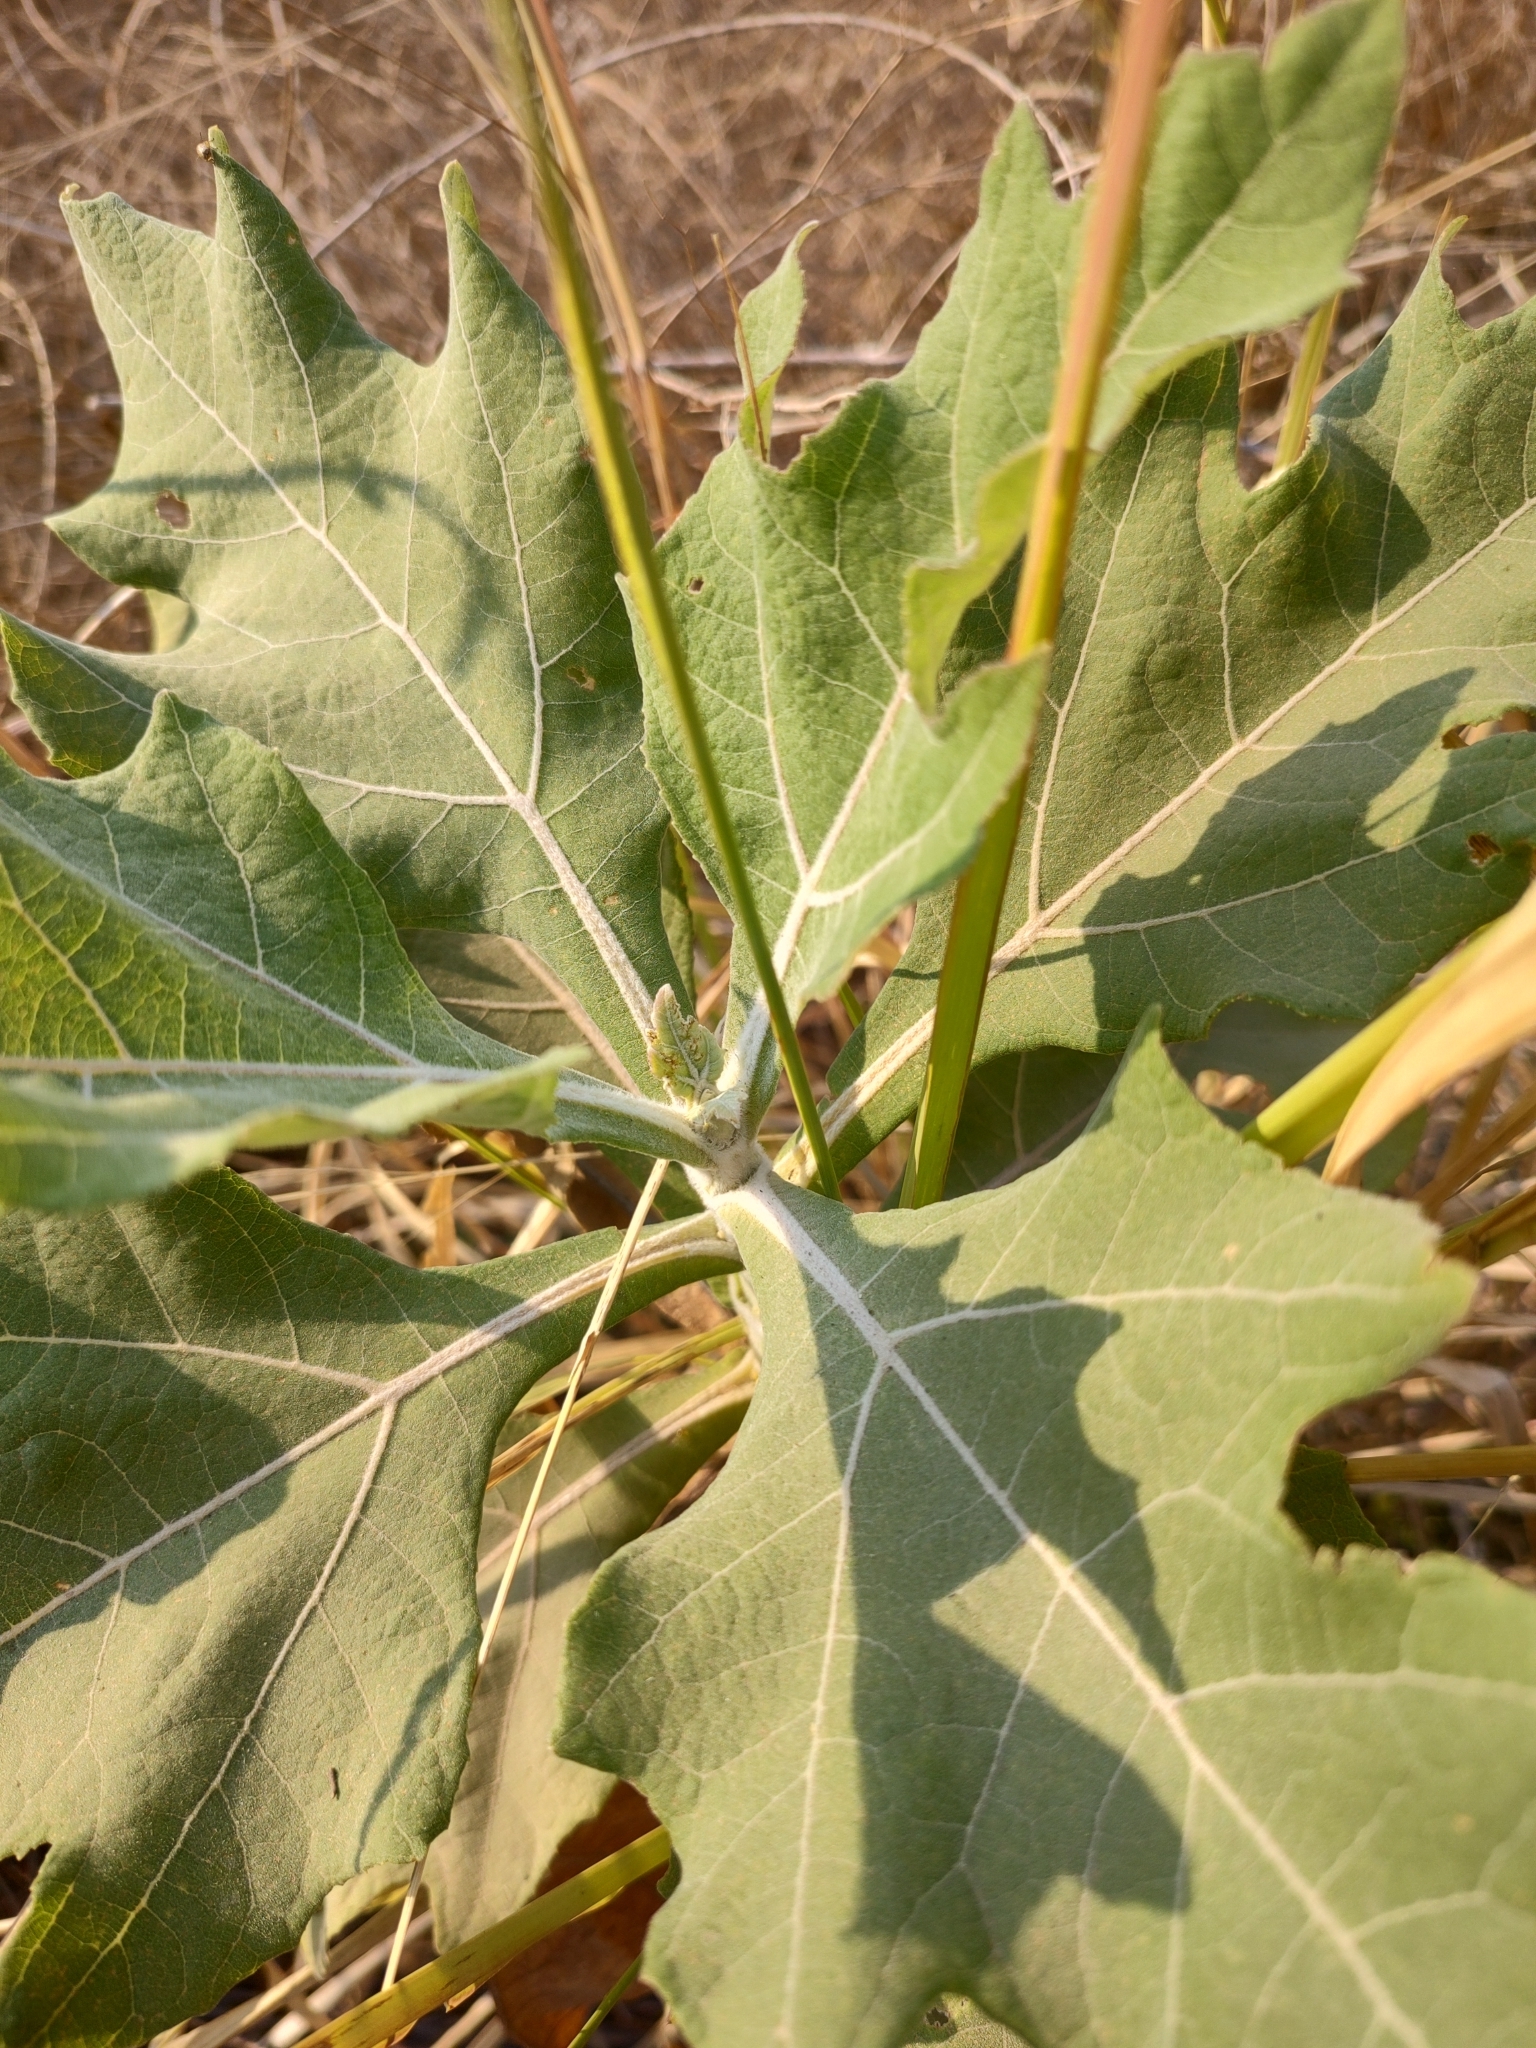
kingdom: Plantae
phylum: Tracheophyta
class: Magnoliopsida
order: Asterales
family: Asteraceae
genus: Verbesina
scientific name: Verbesina fastigiata
